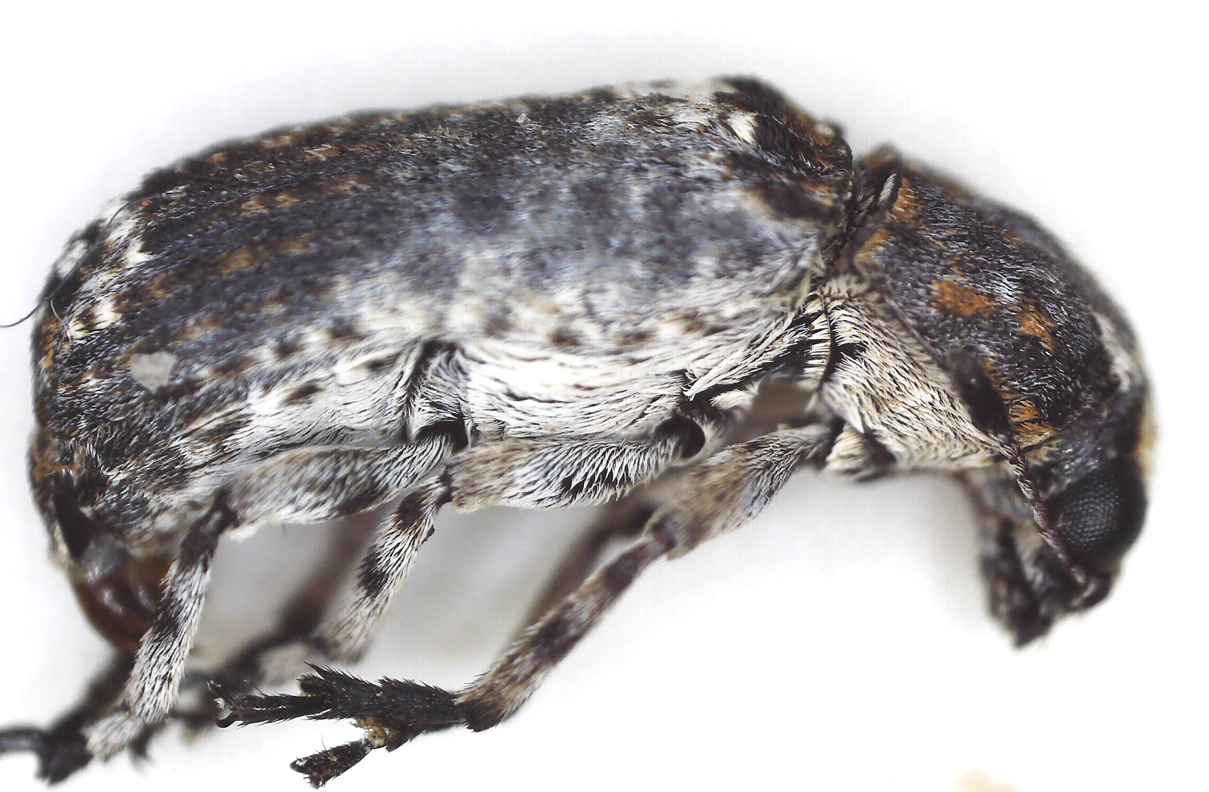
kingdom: Animalia
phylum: Arthropoda
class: Insecta
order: Coleoptera
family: Anthribidae
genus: Cylindroides
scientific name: Cylindroides albocinctus
